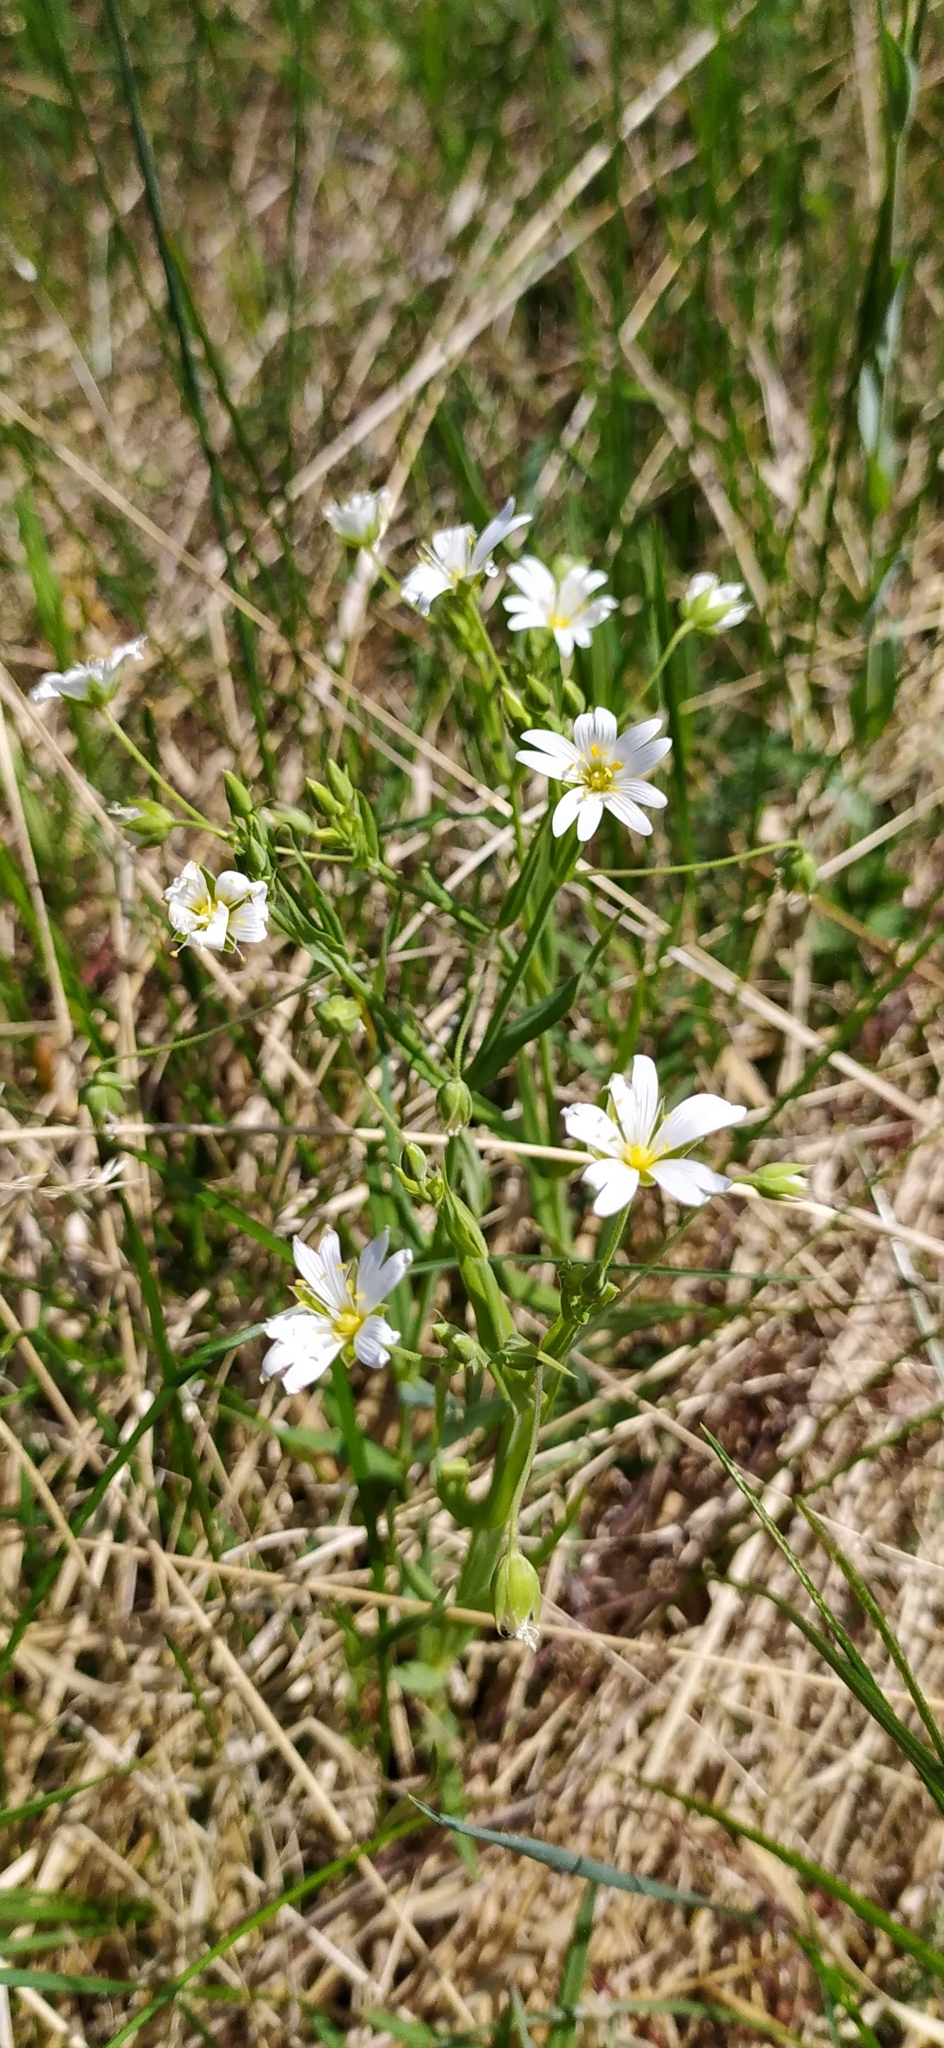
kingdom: Plantae
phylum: Tracheophyta
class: Magnoliopsida
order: Caryophyllales
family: Caryophyllaceae
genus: Rabelera
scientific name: Rabelera holostea
